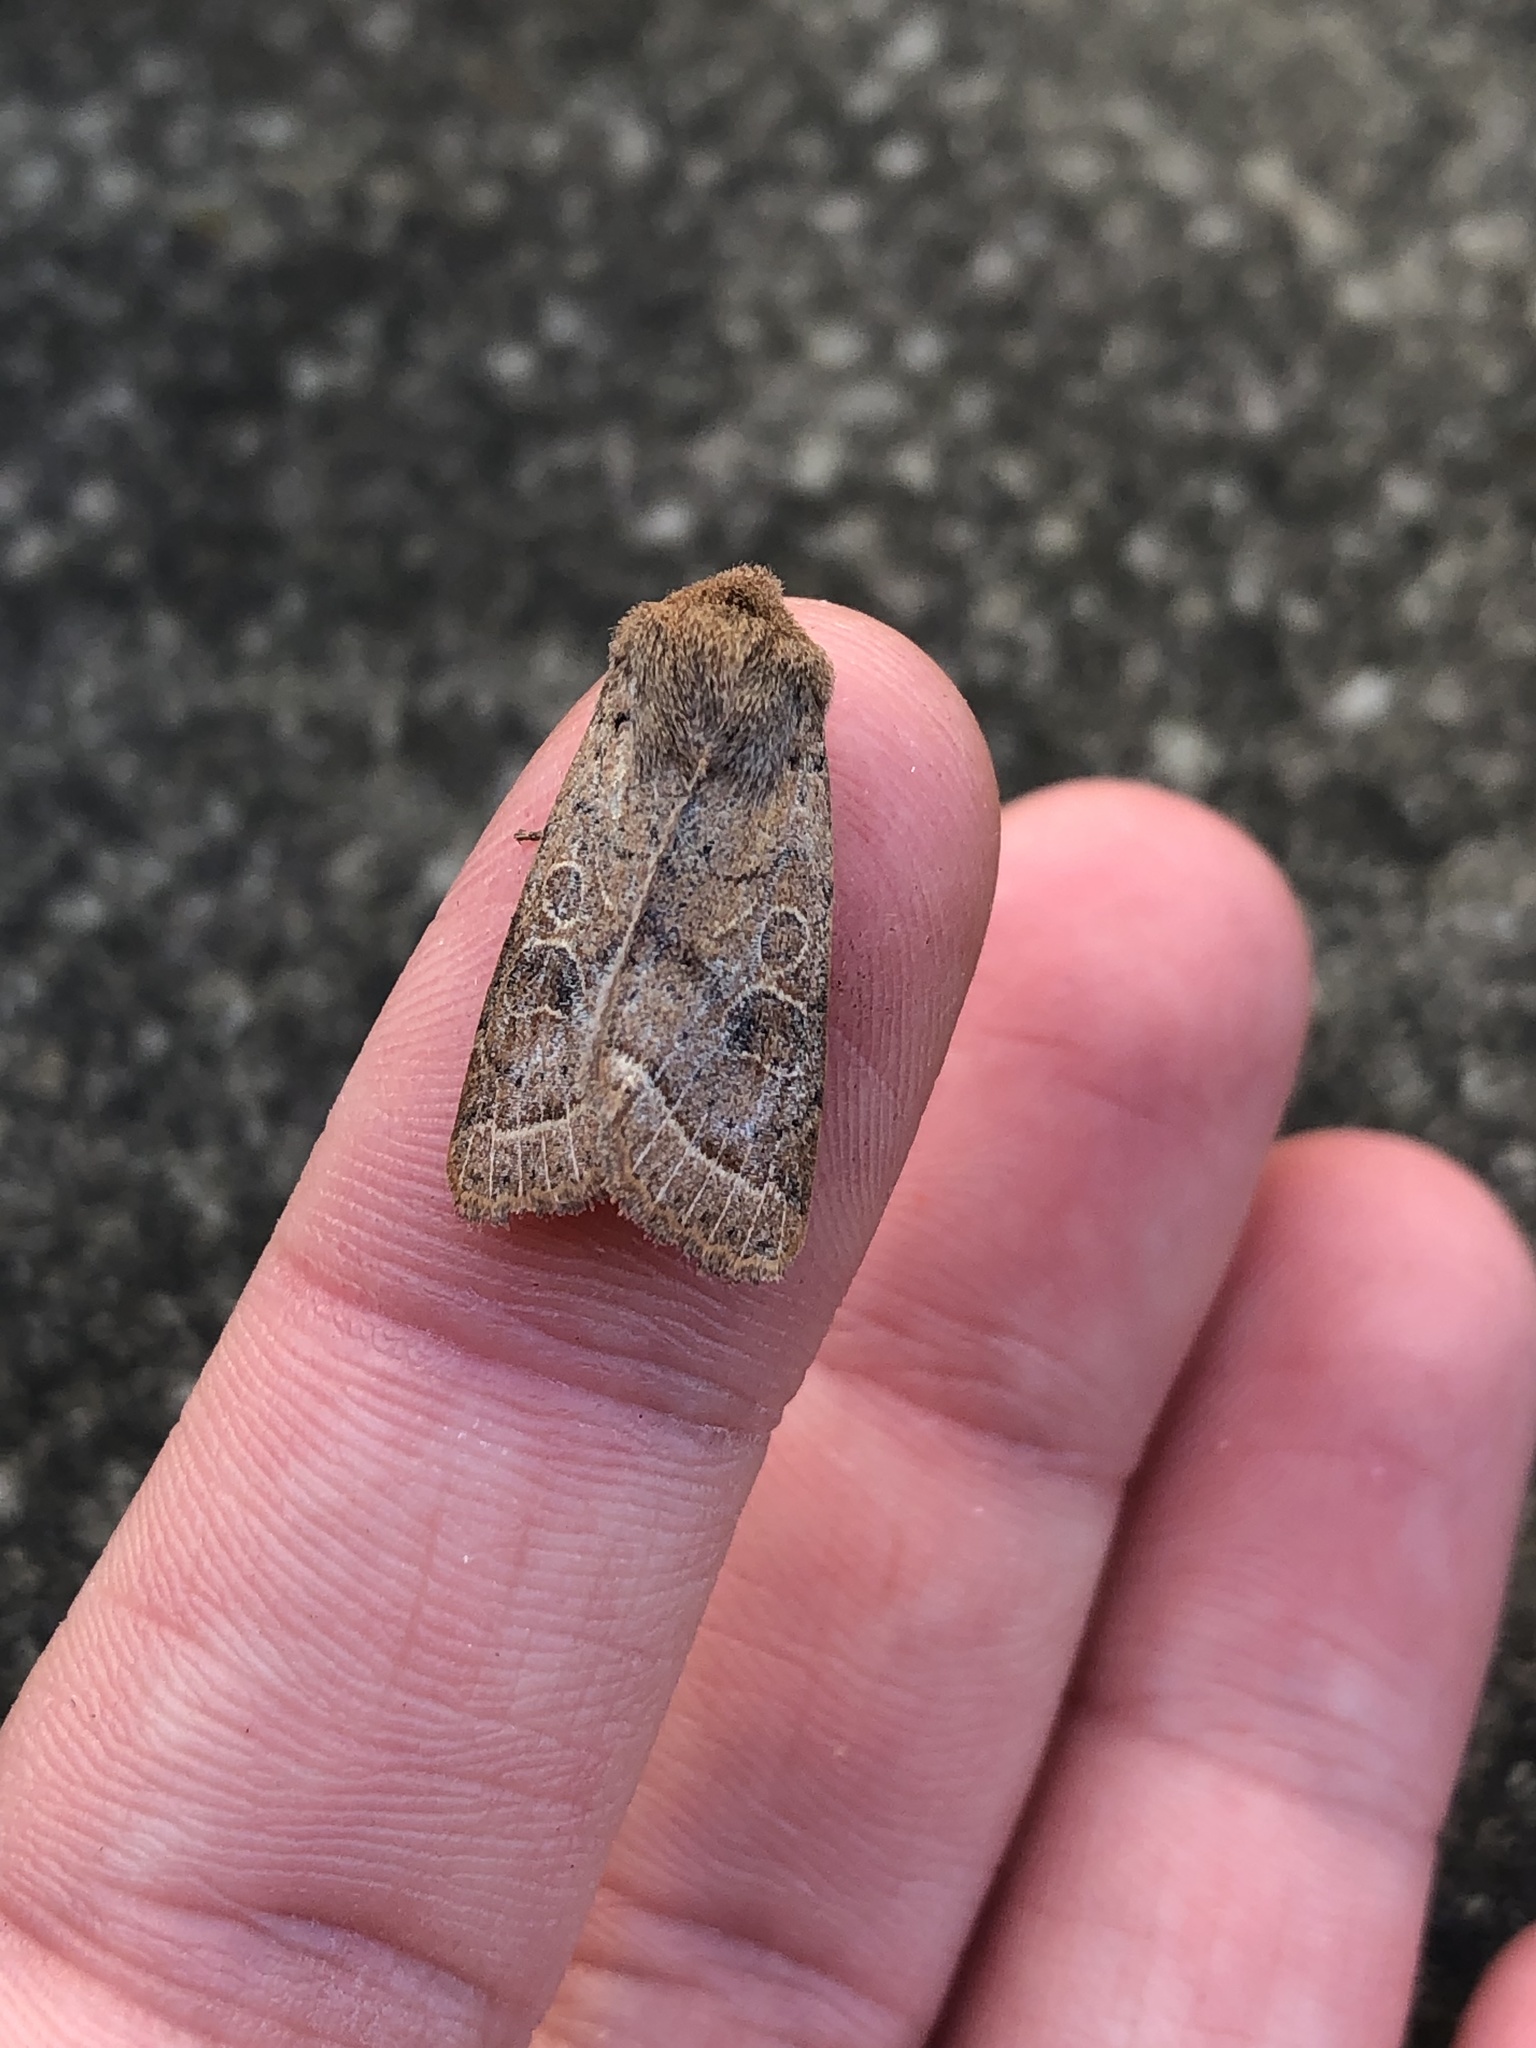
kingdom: Animalia
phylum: Arthropoda
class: Insecta
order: Lepidoptera
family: Noctuidae
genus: Orthosia
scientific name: Orthosia cerasi
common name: Common quaker
